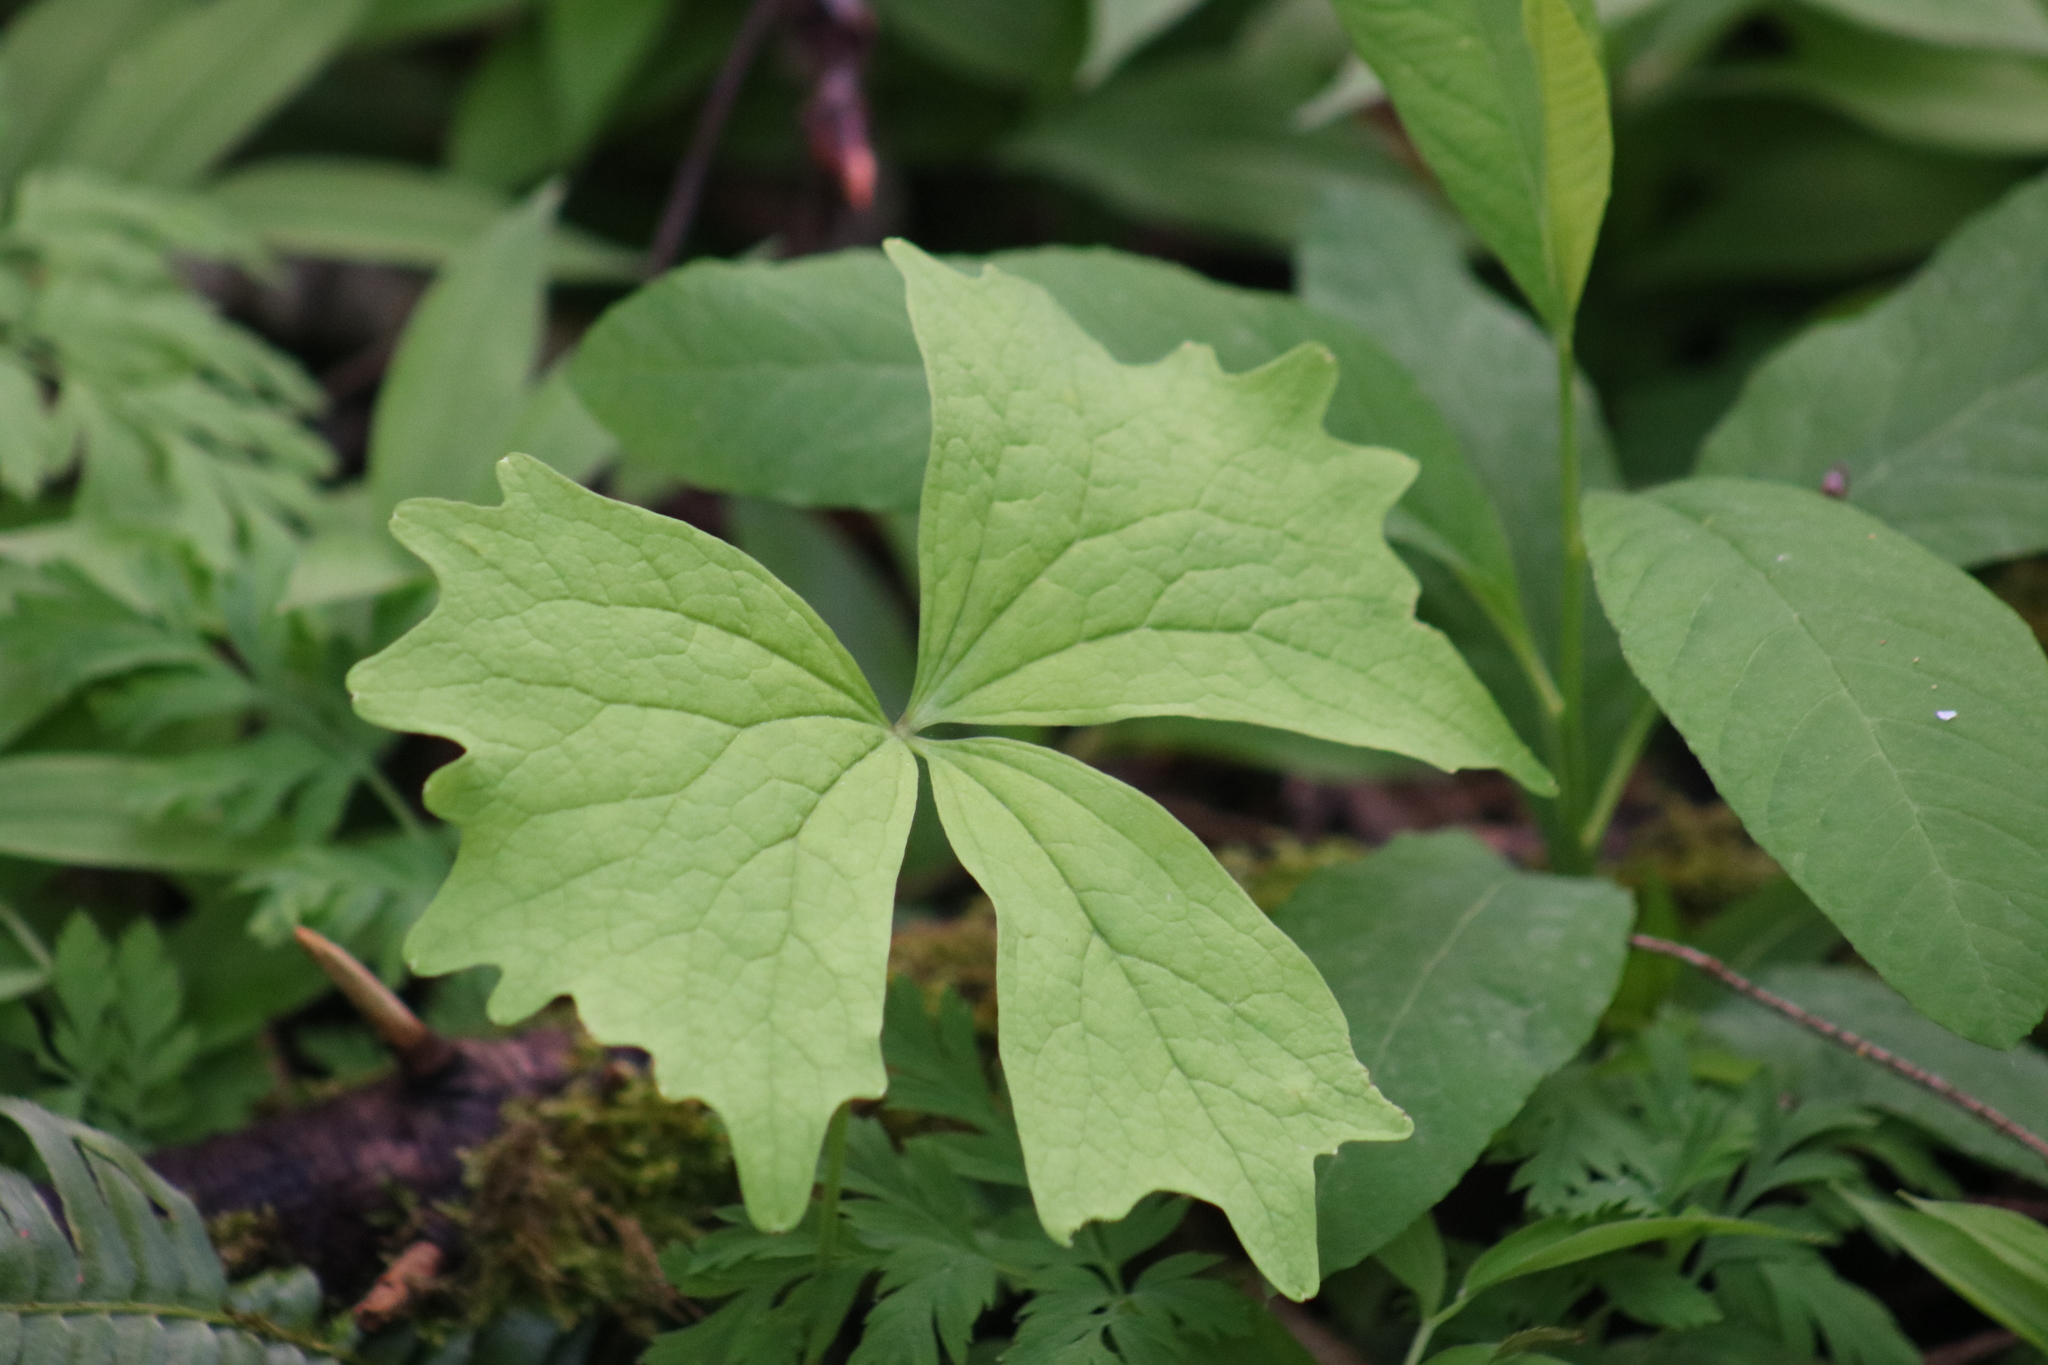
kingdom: Plantae
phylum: Tracheophyta
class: Magnoliopsida
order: Ranunculales
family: Berberidaceae
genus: Achlys
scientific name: Achlys triphylla
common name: Vanilla-leaf
